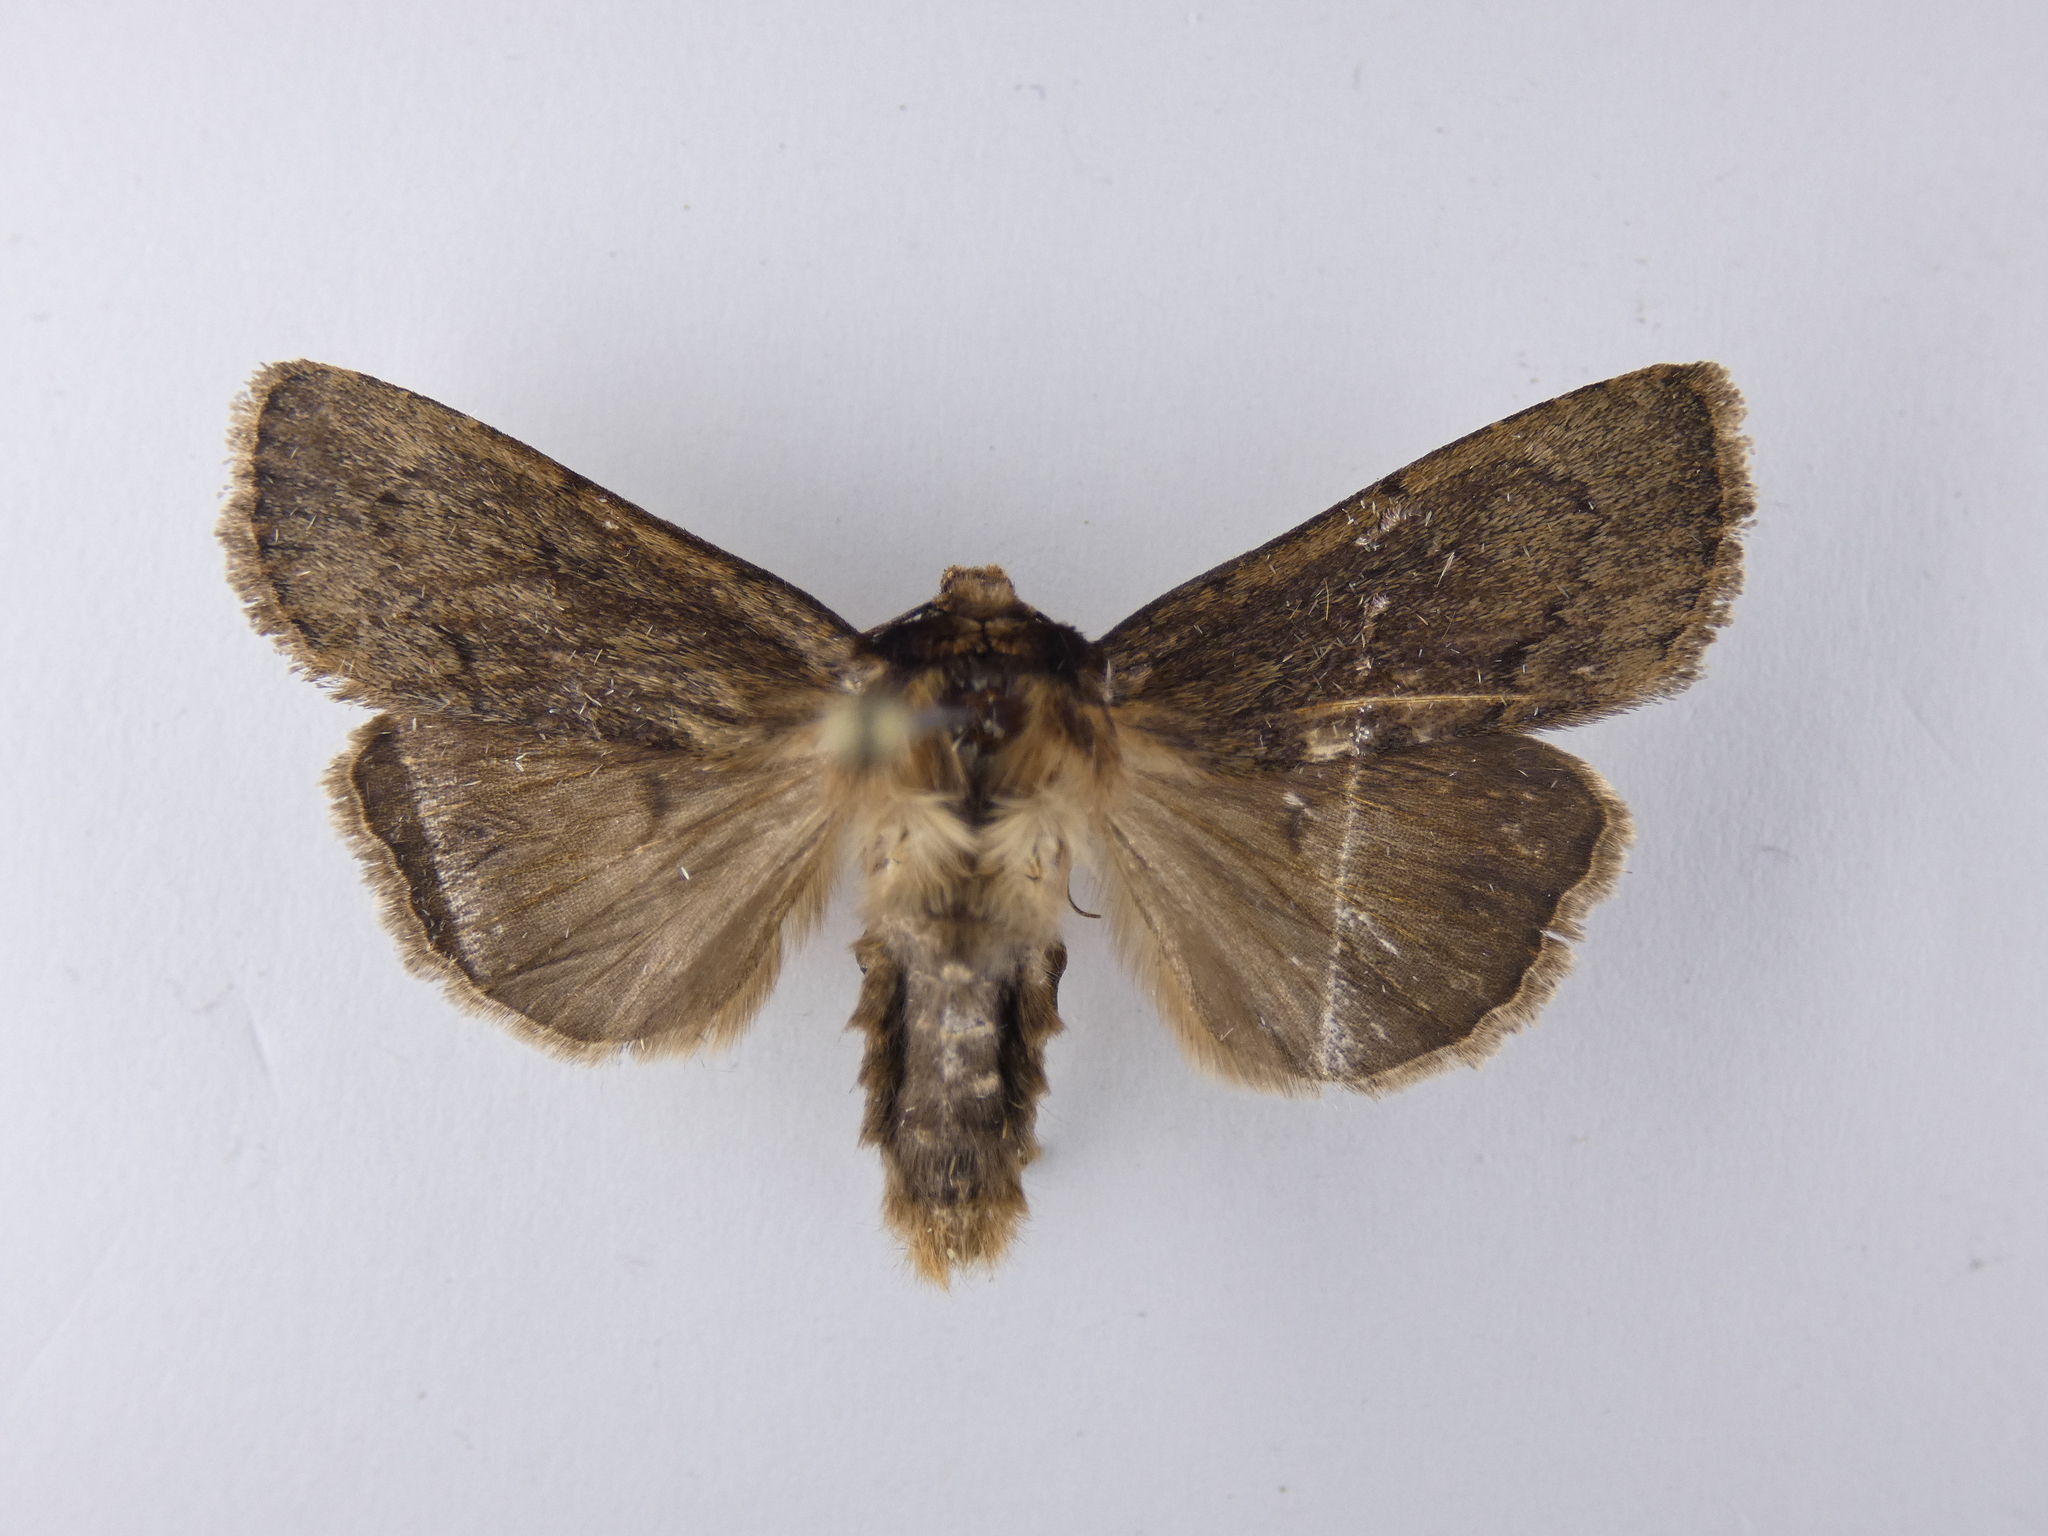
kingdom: Animalia
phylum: Arthropoda
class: Insecta
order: Lepidoptera
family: Noctuidae
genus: Bityla
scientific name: Bityla defigurata
